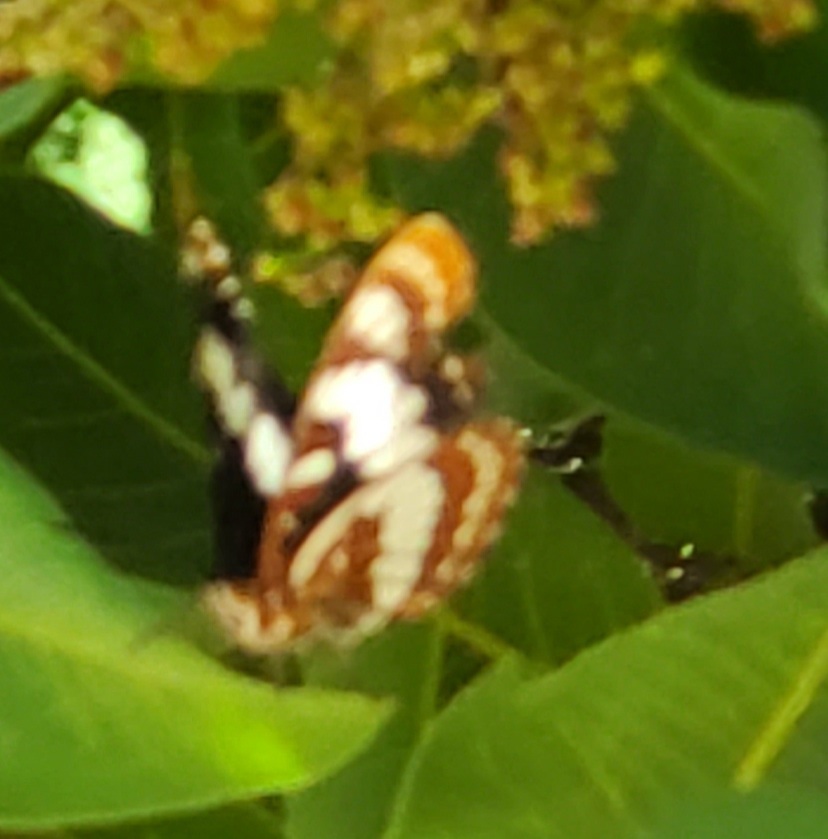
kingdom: Animalia
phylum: Arthropoda
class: Insecta
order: Lepidoptera
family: Nymphalidae
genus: Limenitis
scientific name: Limenitis lorquini
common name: Lorquin's admiral
